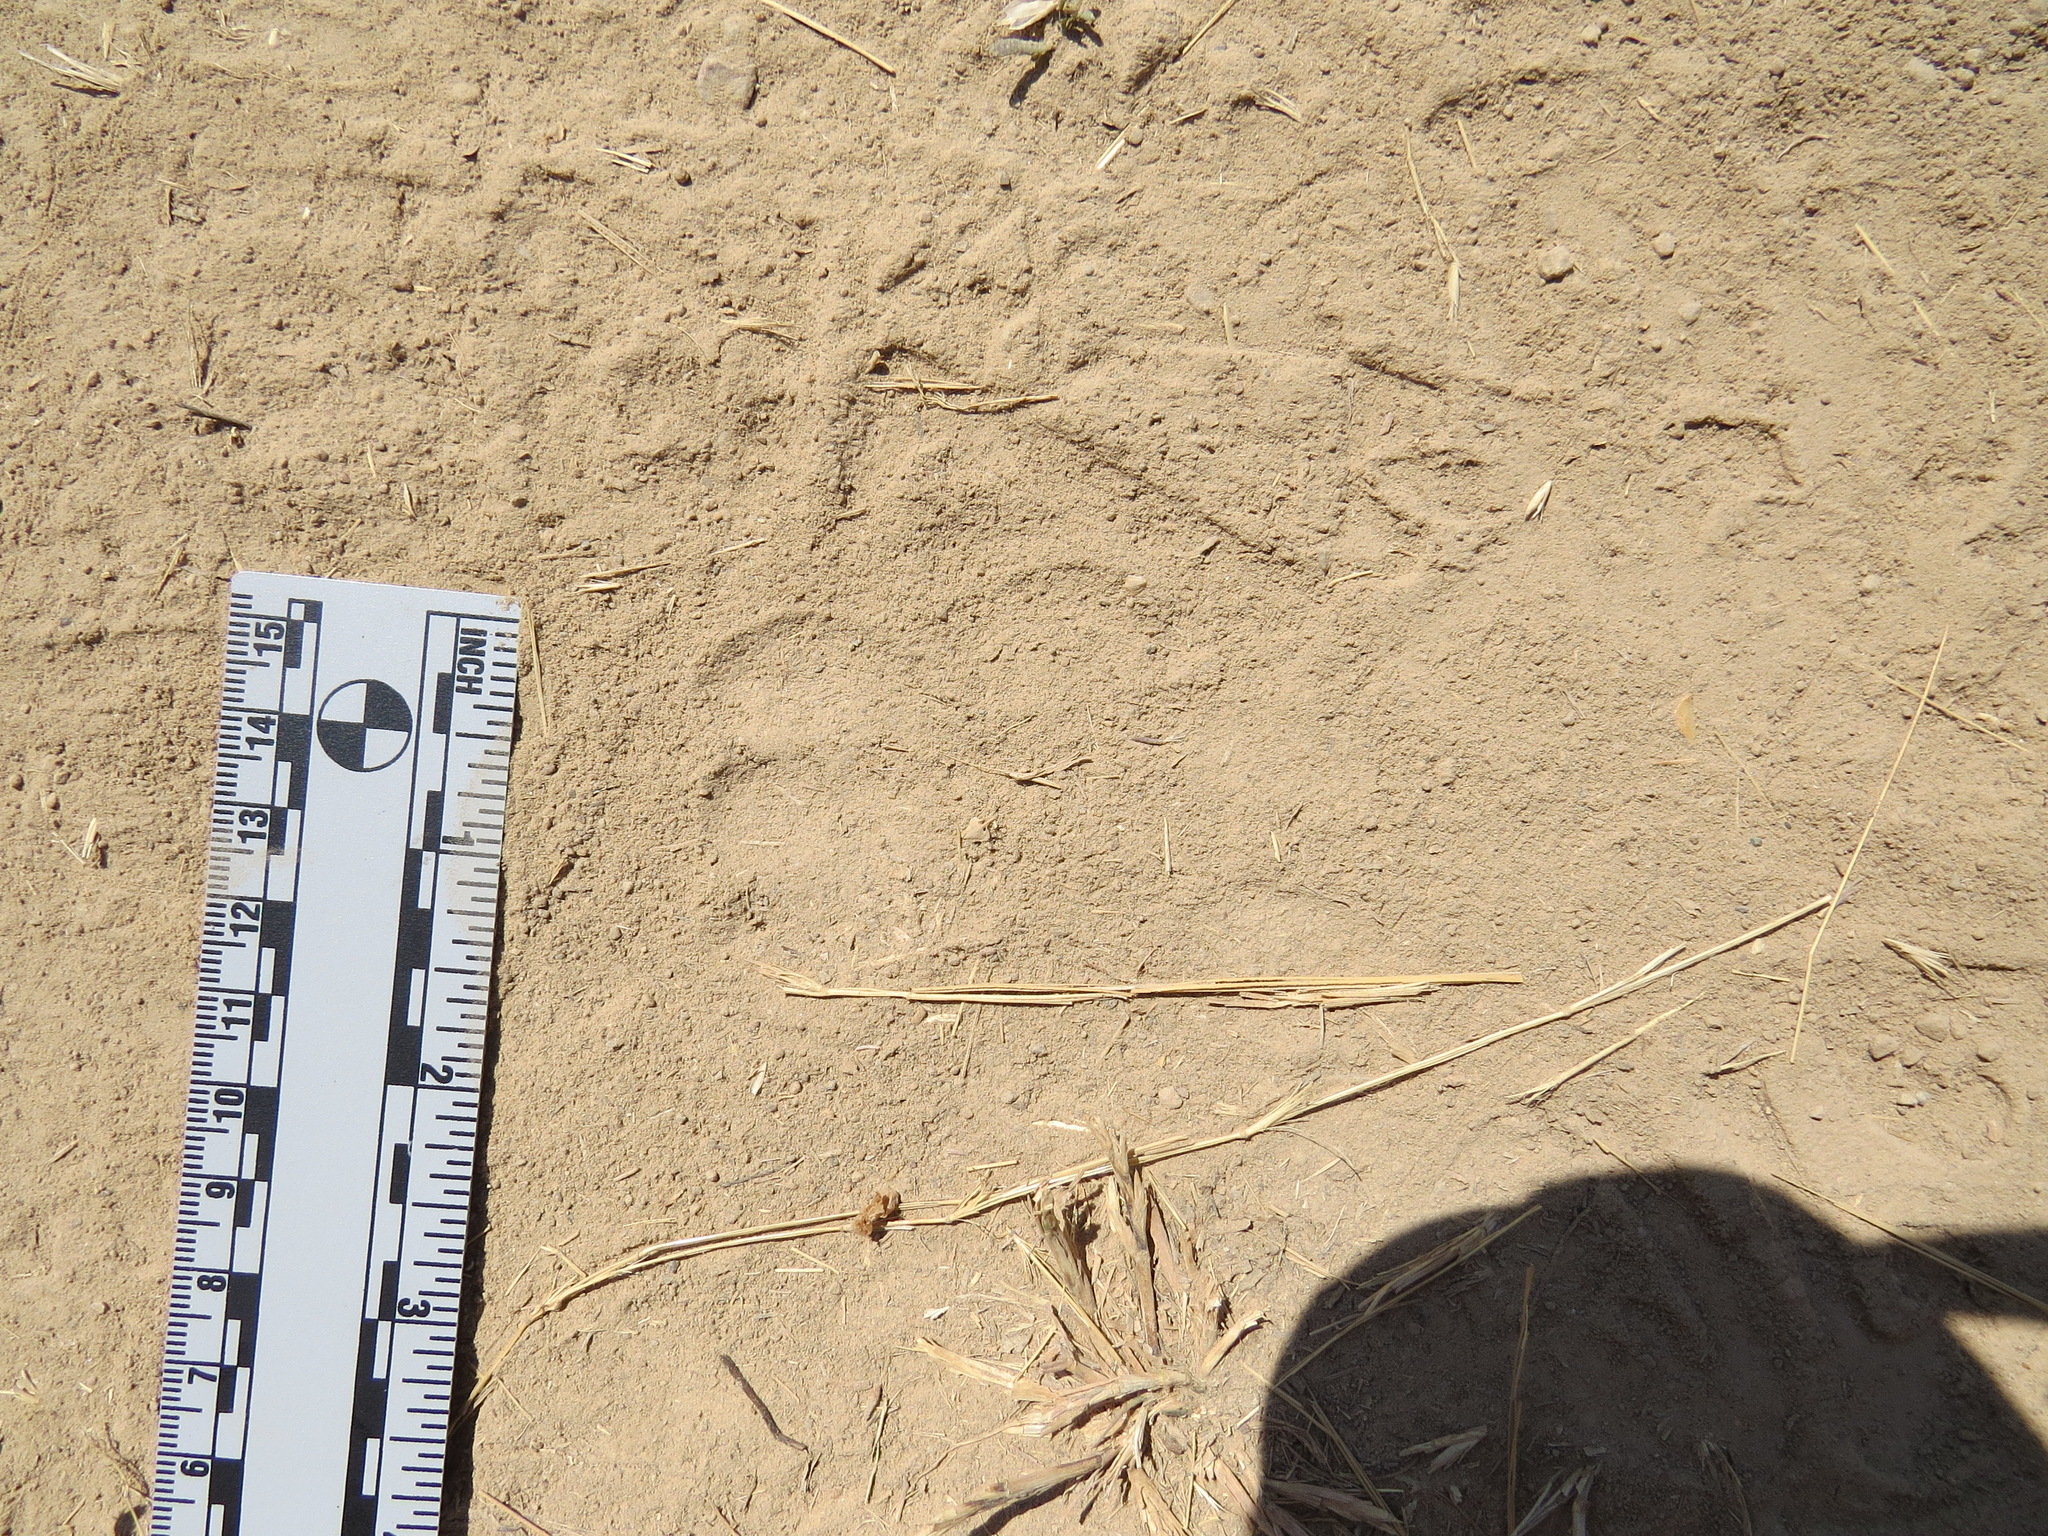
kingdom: Animalia
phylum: Chordata
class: Mammalia
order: Carnivora
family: Felidae
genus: Puma
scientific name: Puma concolor
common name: Puma
